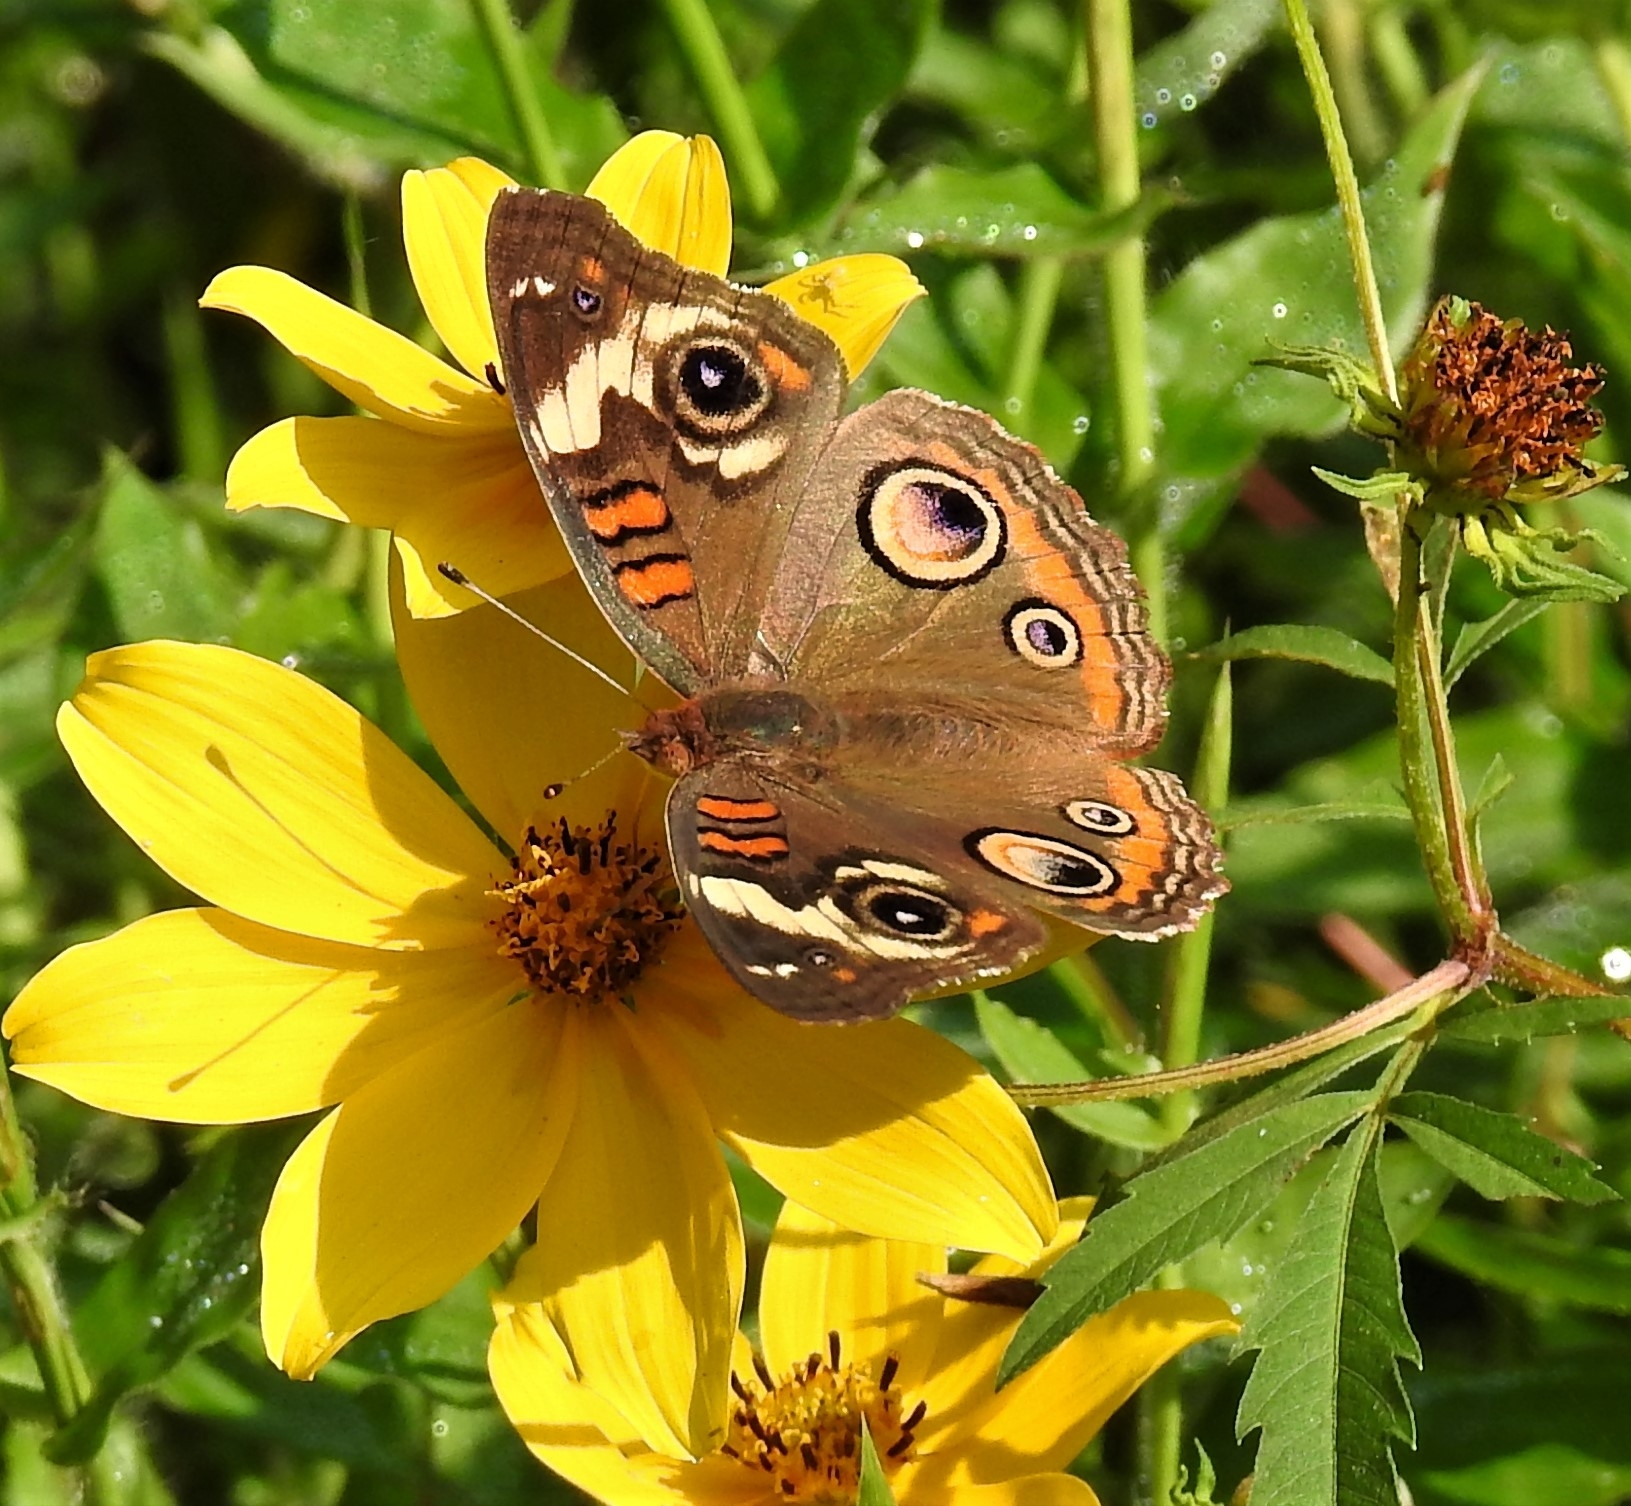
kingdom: Animalia
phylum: Arthropoda
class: Insecta
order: Lepidoptera
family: Nymphalidae
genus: Junonia
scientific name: Junonia coenia
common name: Common buckeye
